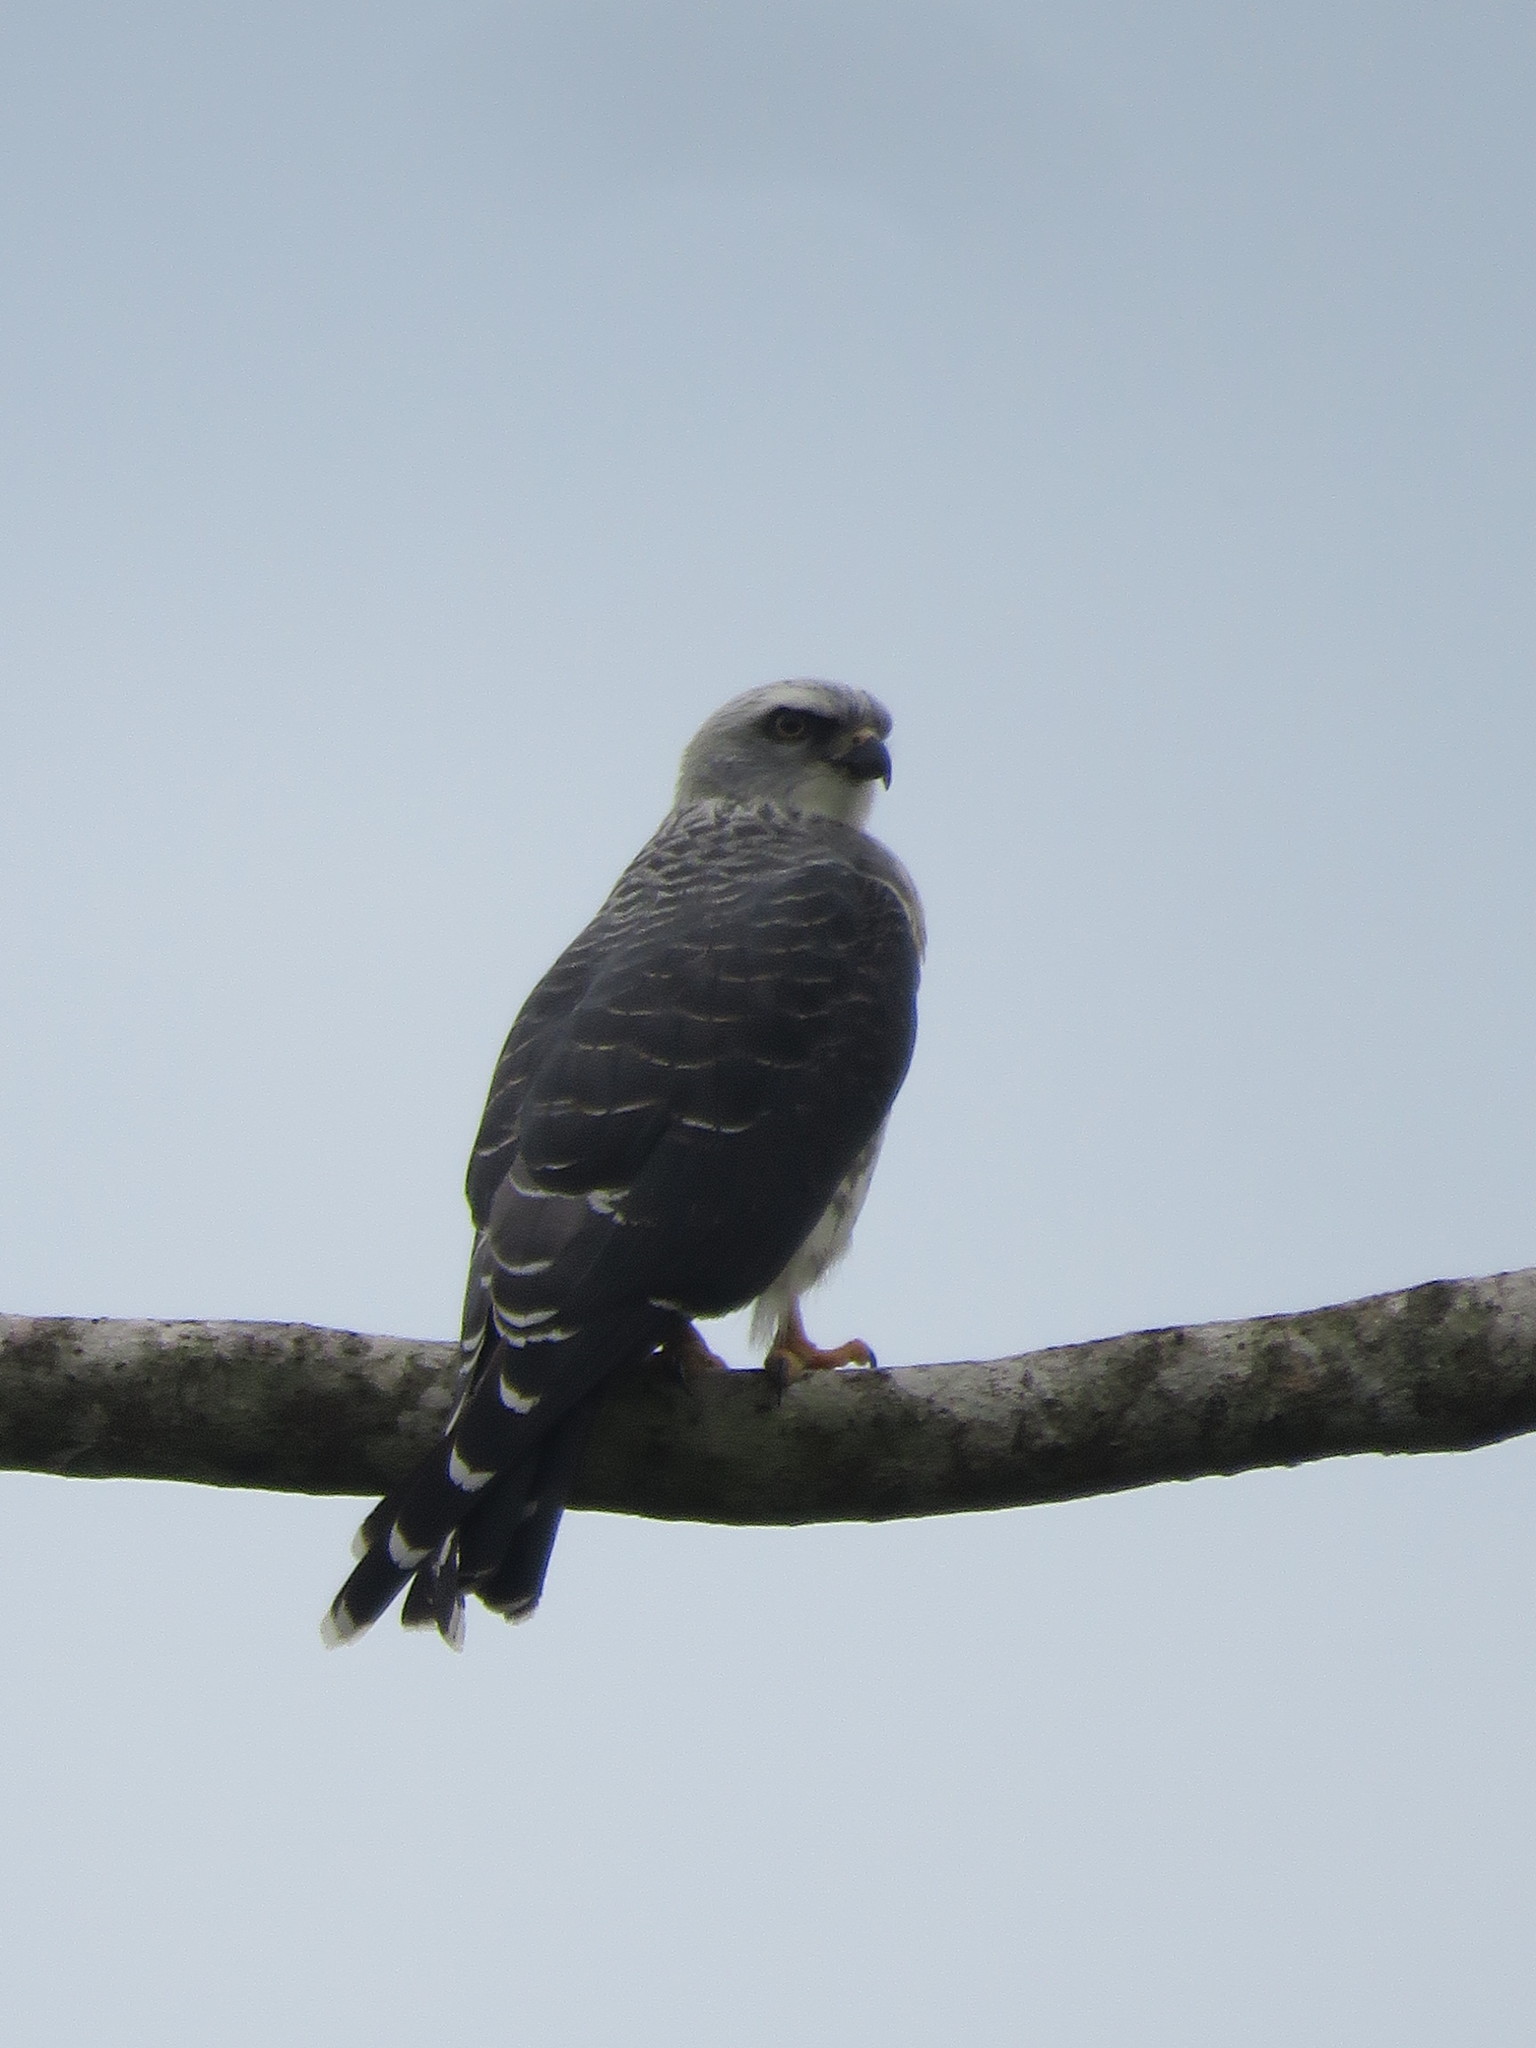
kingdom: Animalia
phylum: Chordata
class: Aves
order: Accipitriformes
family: Accipitridae
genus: Ictinia
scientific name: Ictinia plumbea
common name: Plumbeous kite
